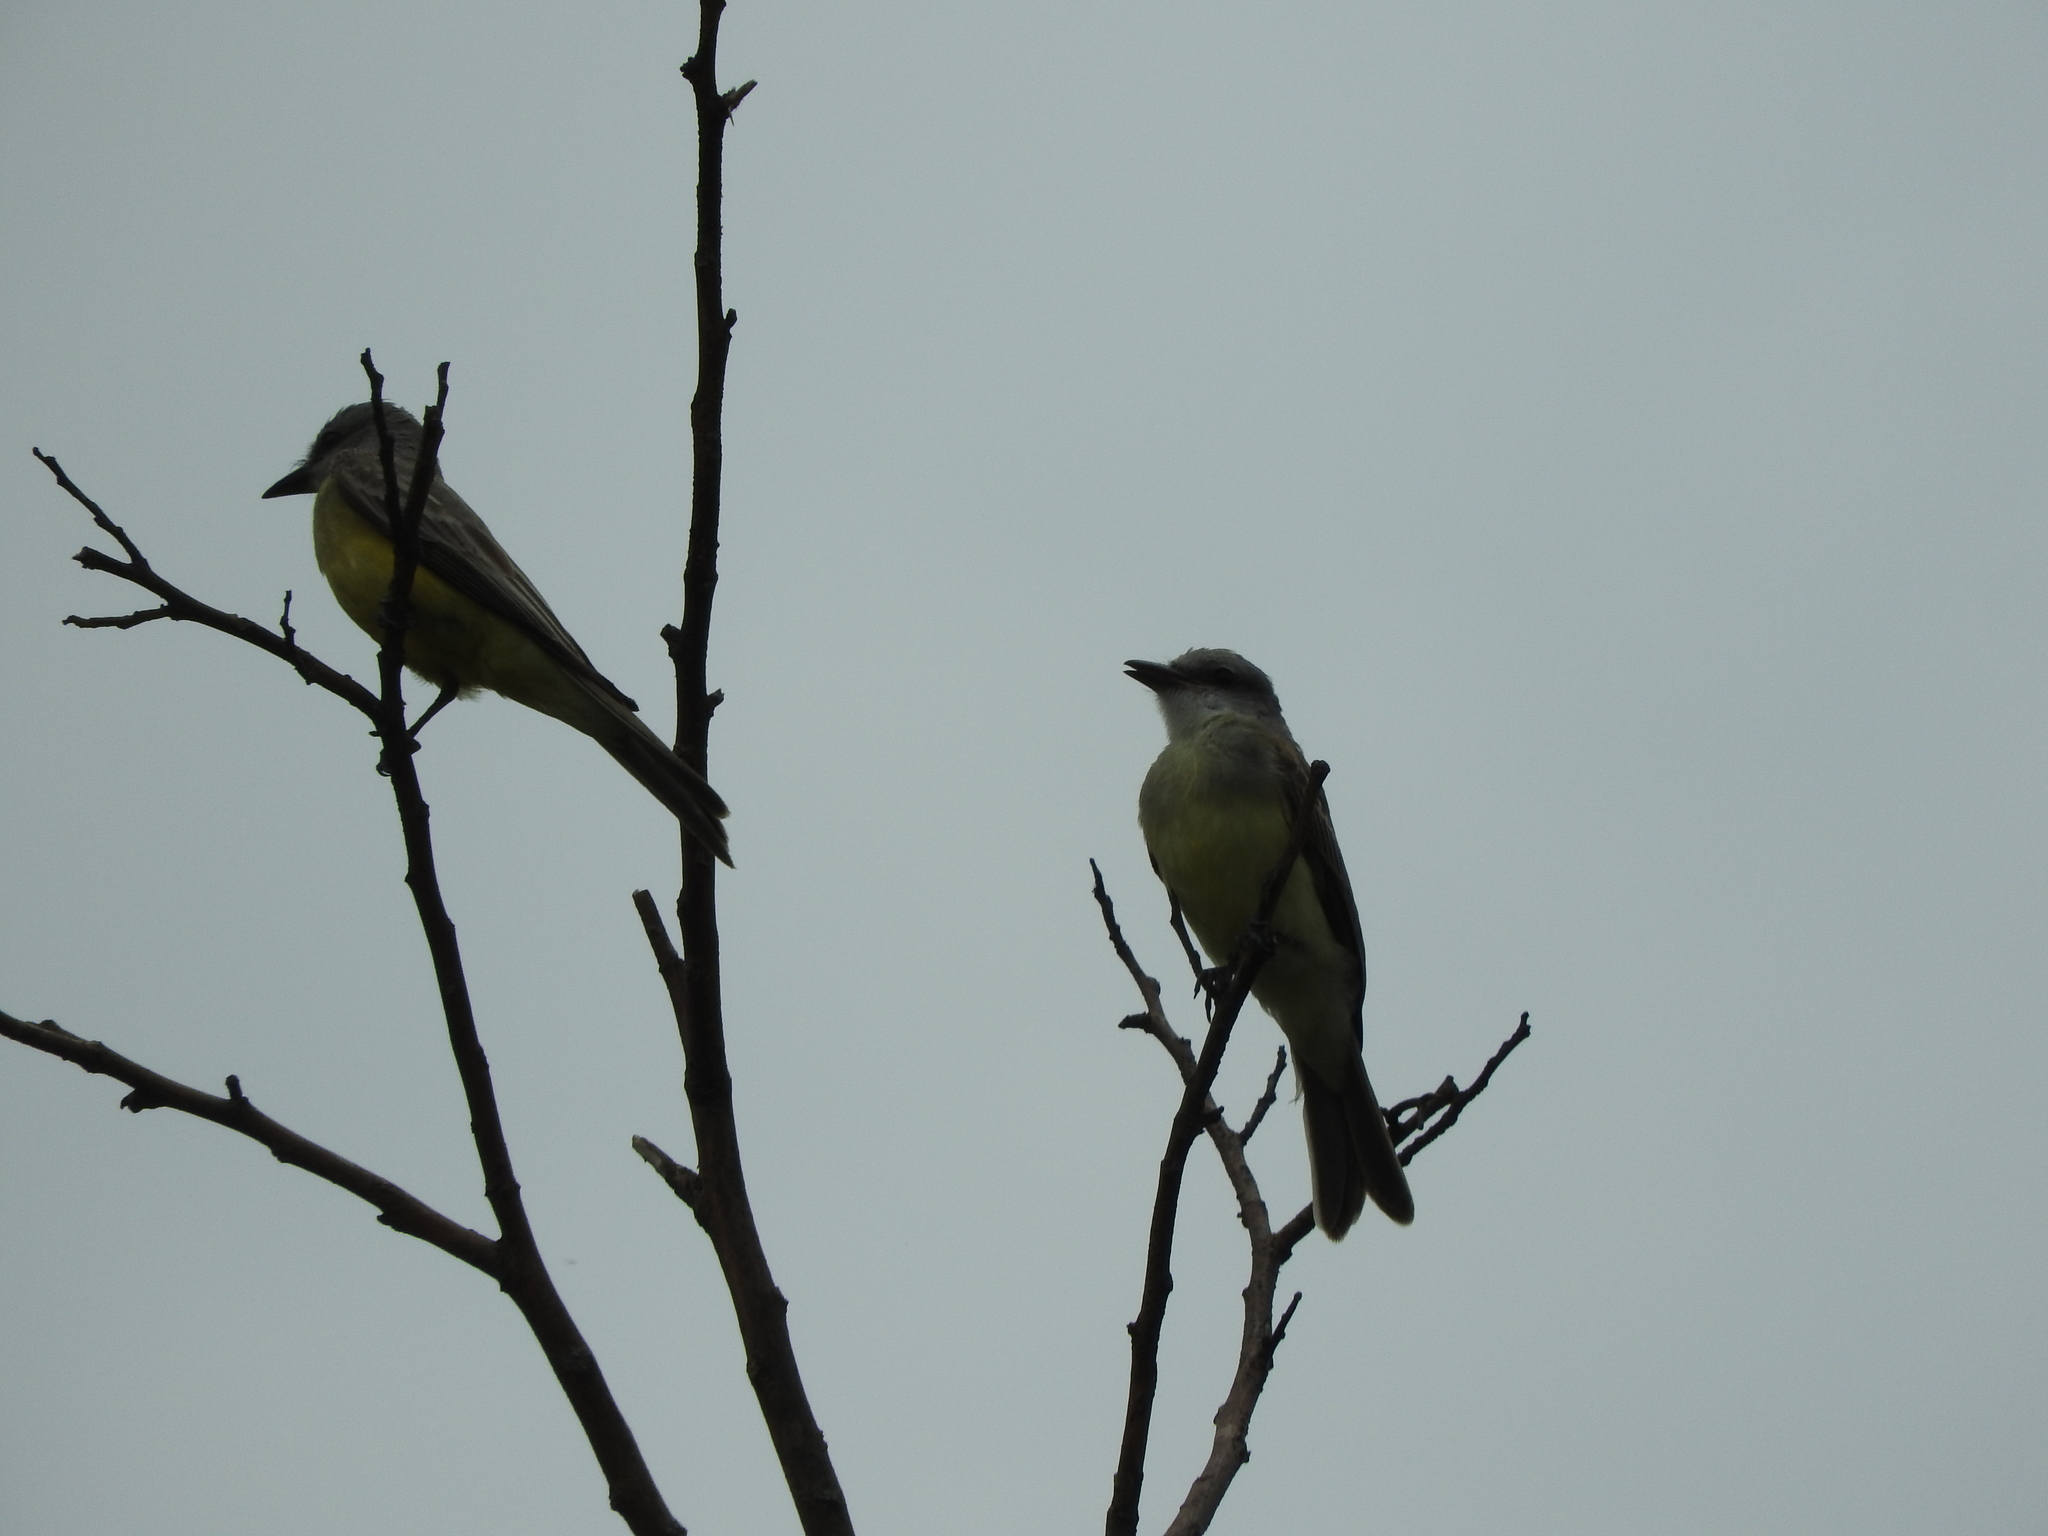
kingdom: Animalia
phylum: Chordata
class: Aves
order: Passeriformes
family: Tyrannidae
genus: Tyrannus
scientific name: Tyrannus melancholicus
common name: Tropical kingbird
